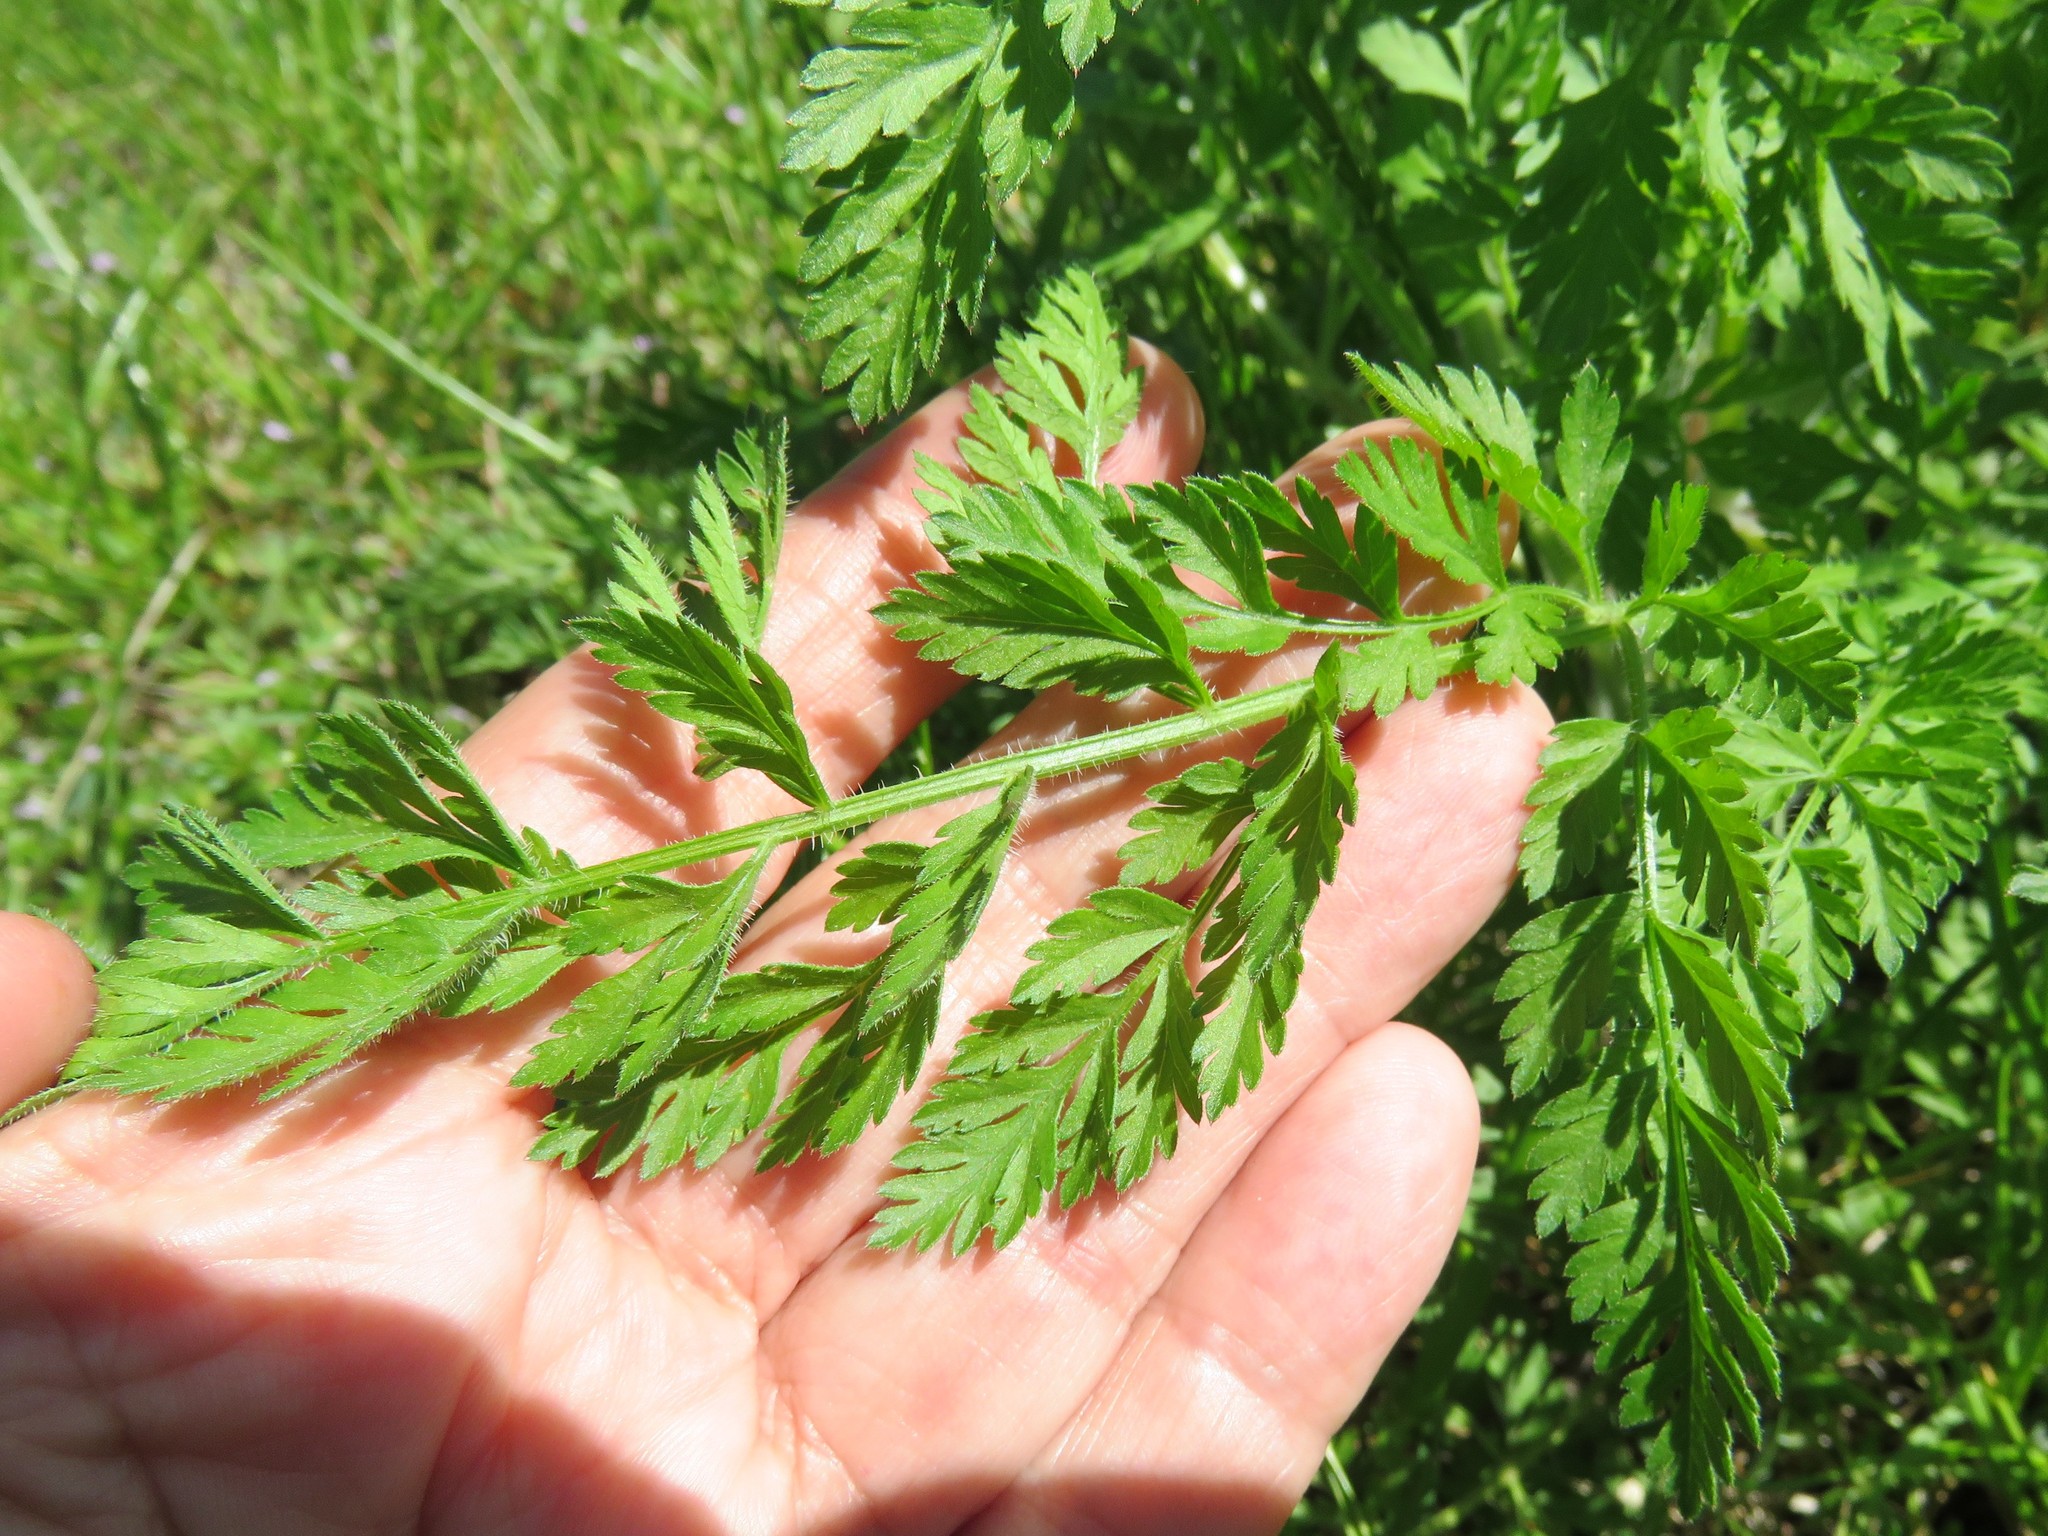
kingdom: Plantae
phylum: Tracheophyta
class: Magnoliopsida
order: Apiales
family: Apiaceae
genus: Daucus
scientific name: Daucus carota
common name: Wild carrot
